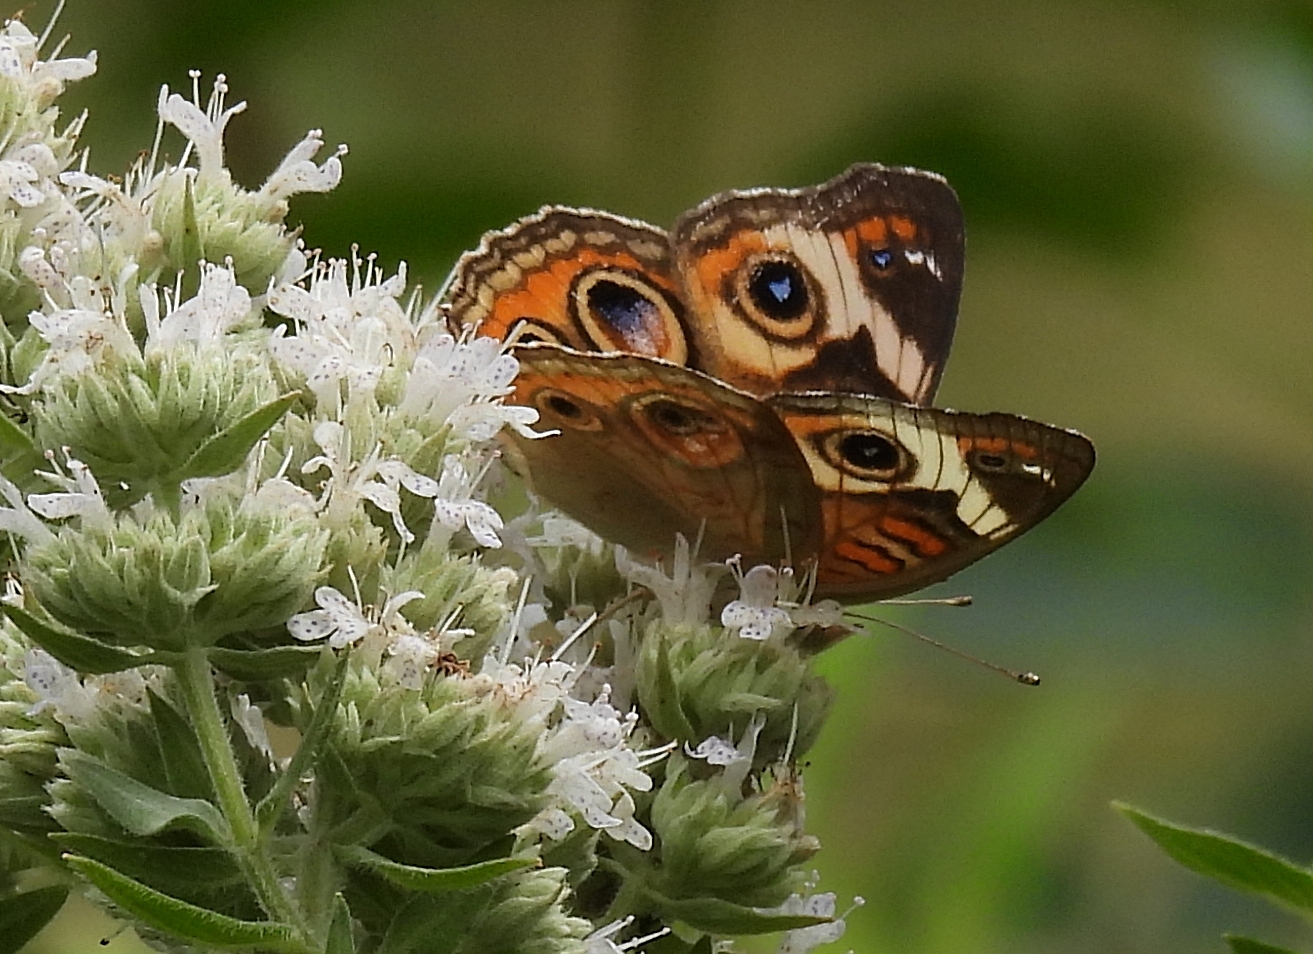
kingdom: Animalia
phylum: Arthropoda
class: Insecta
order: Lepidoptera
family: Nymphalidae
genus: Junonia
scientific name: Junonia coenia
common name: Common buckeye
